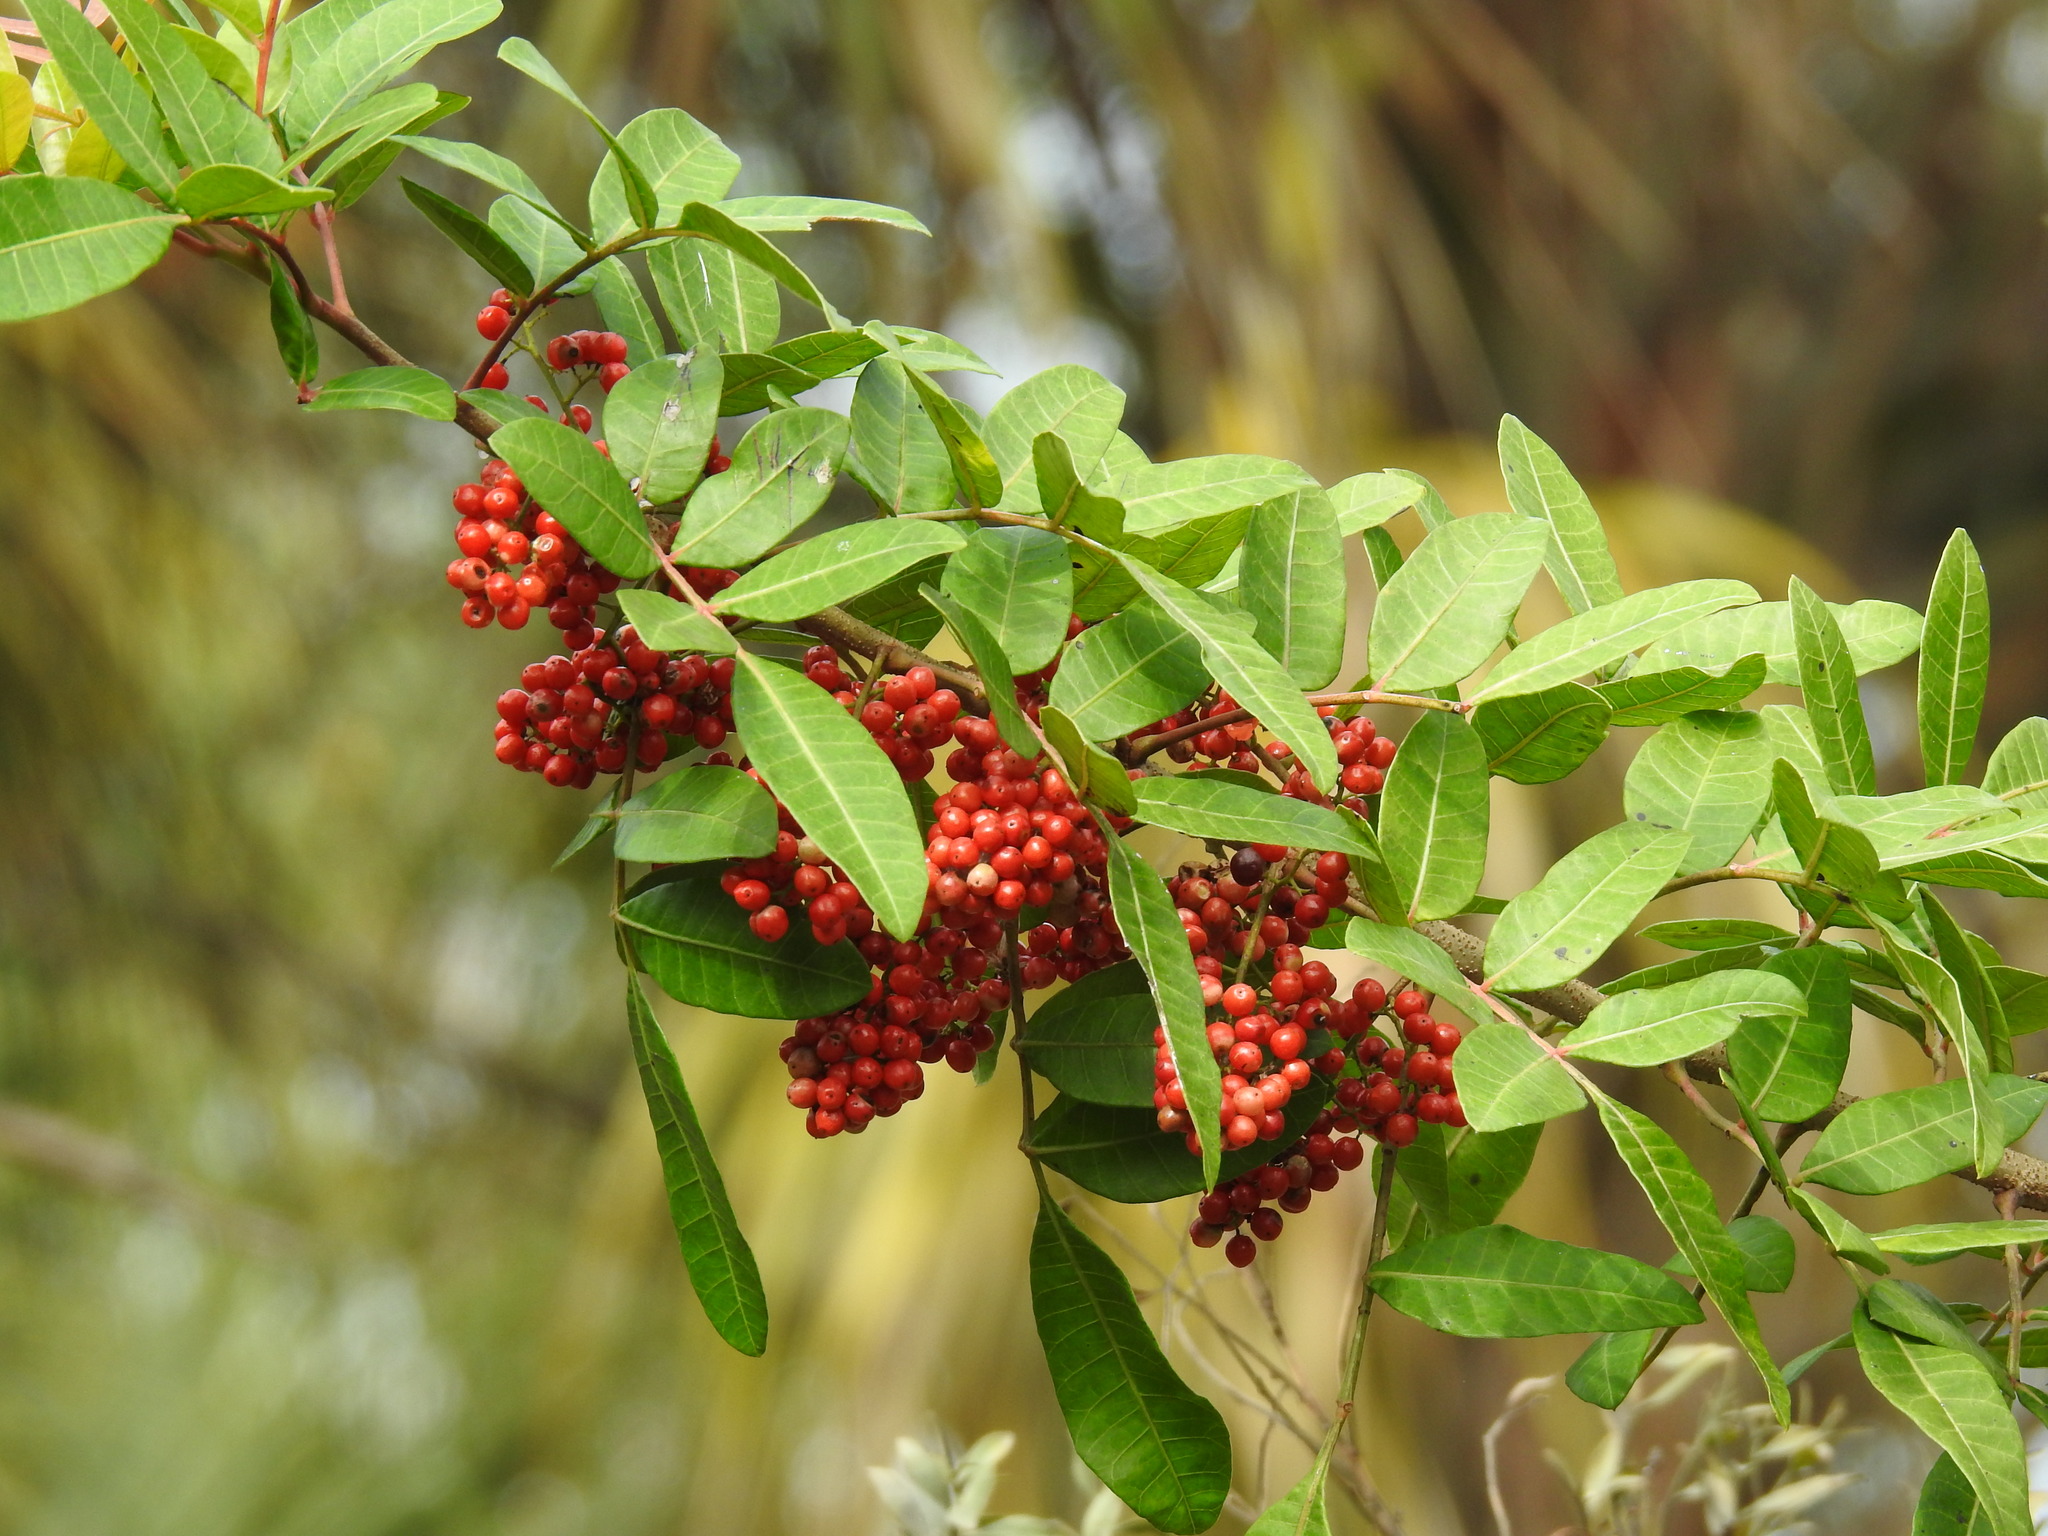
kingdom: Plantae
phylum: Tracheophyta
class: Magnoliopsida
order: Sapindales
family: Anacardiaceae
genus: Schinus
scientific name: Schinus terebinthifolia
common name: Brazilian peppertree
